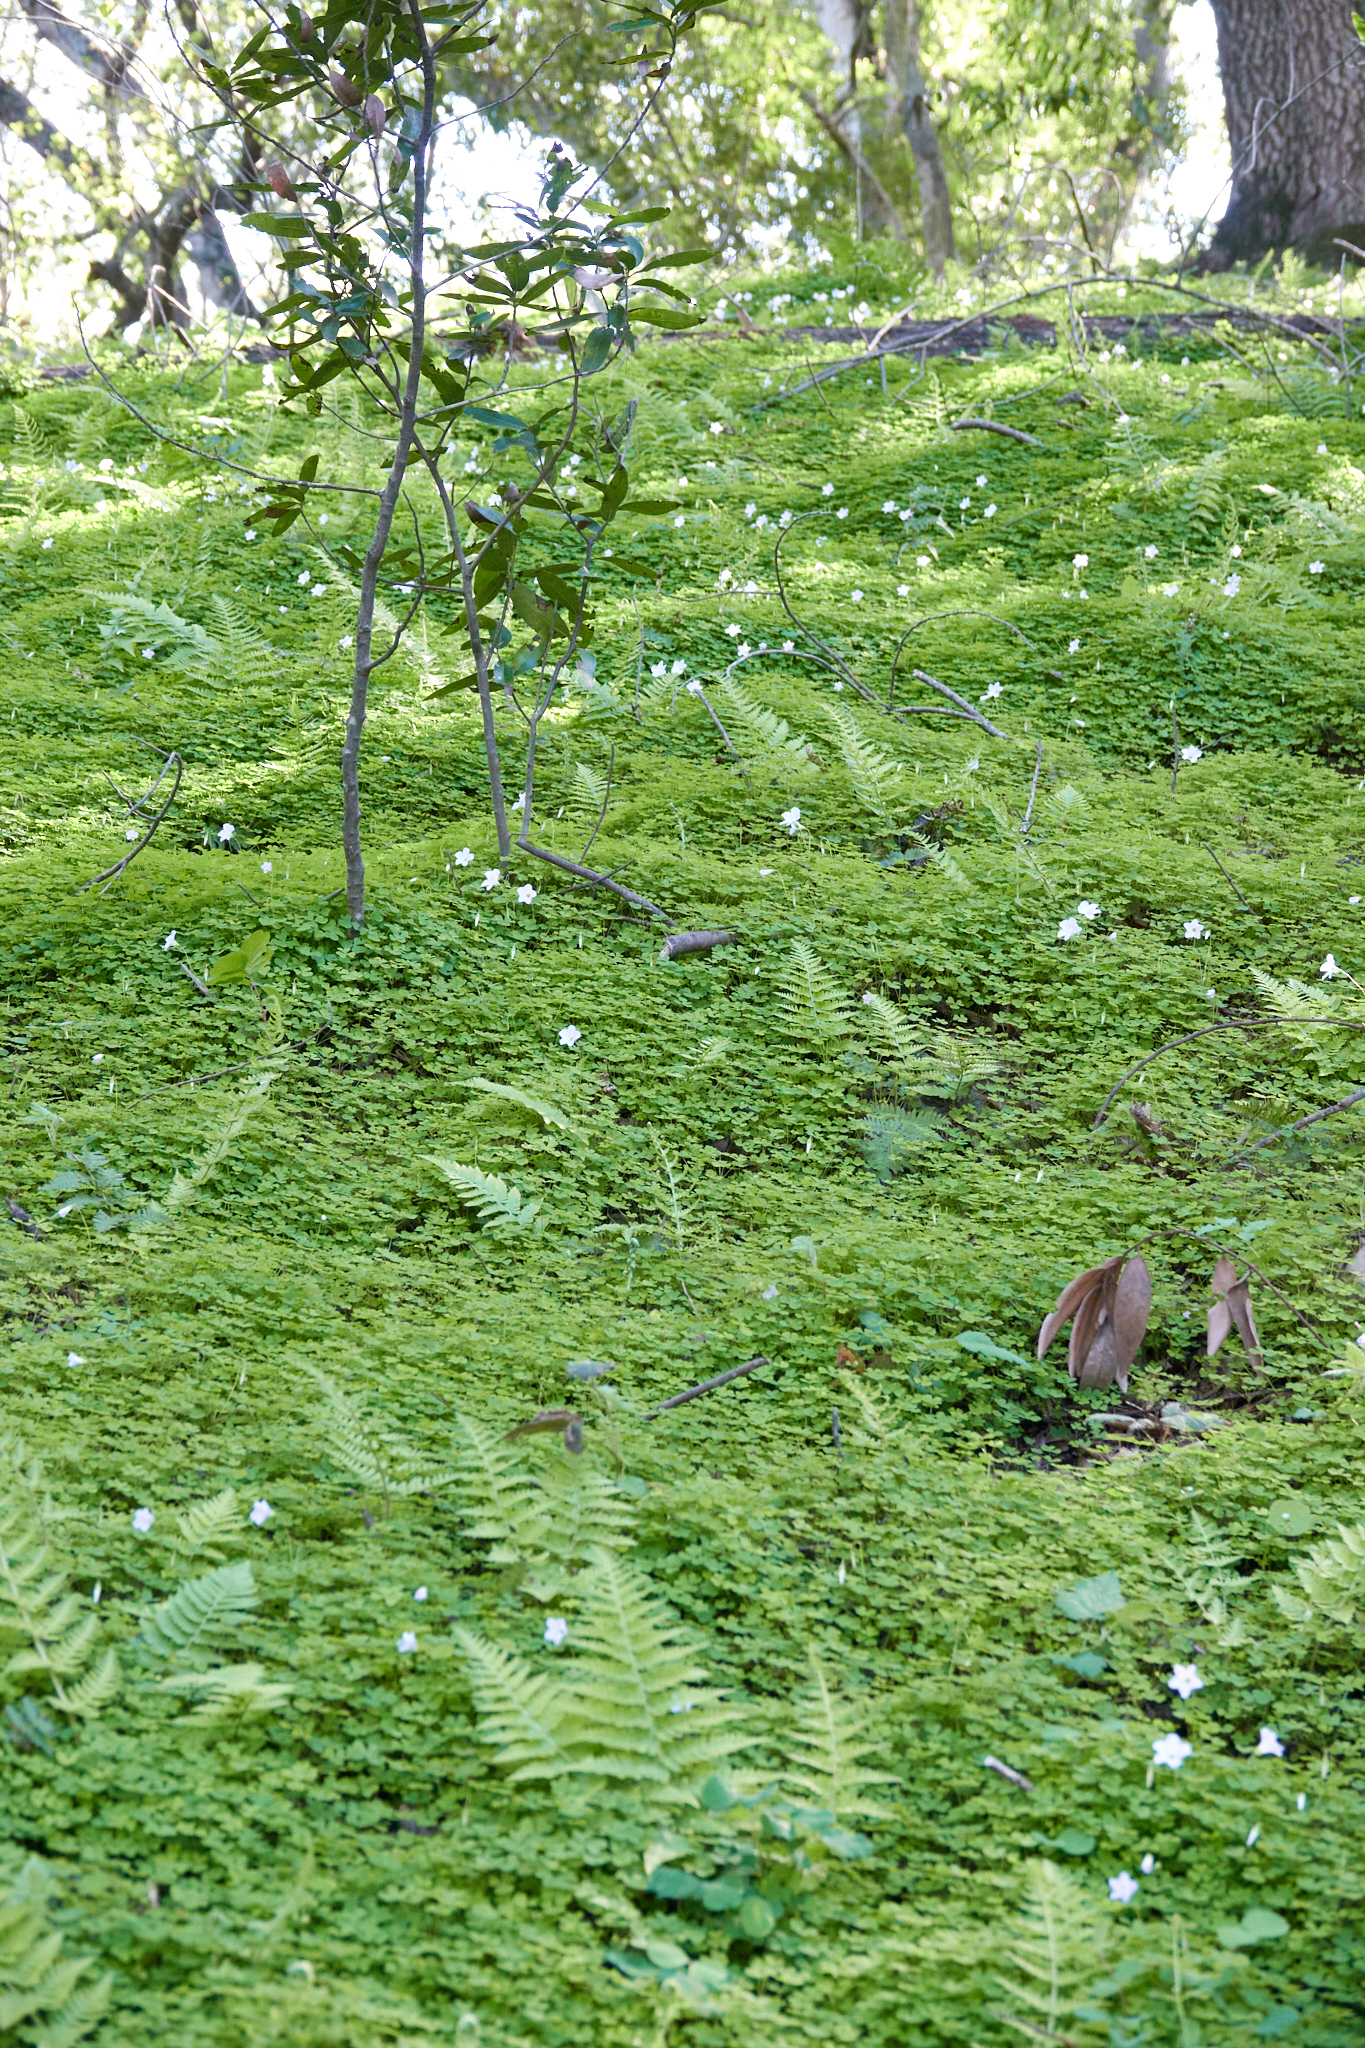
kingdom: Plantae
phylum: Tracheophyta
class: Magnoliopsida
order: Oxalidales
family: Oxalidaceae
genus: Oxalis
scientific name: Oxalis incarnata
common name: Pale pink-sorrel
